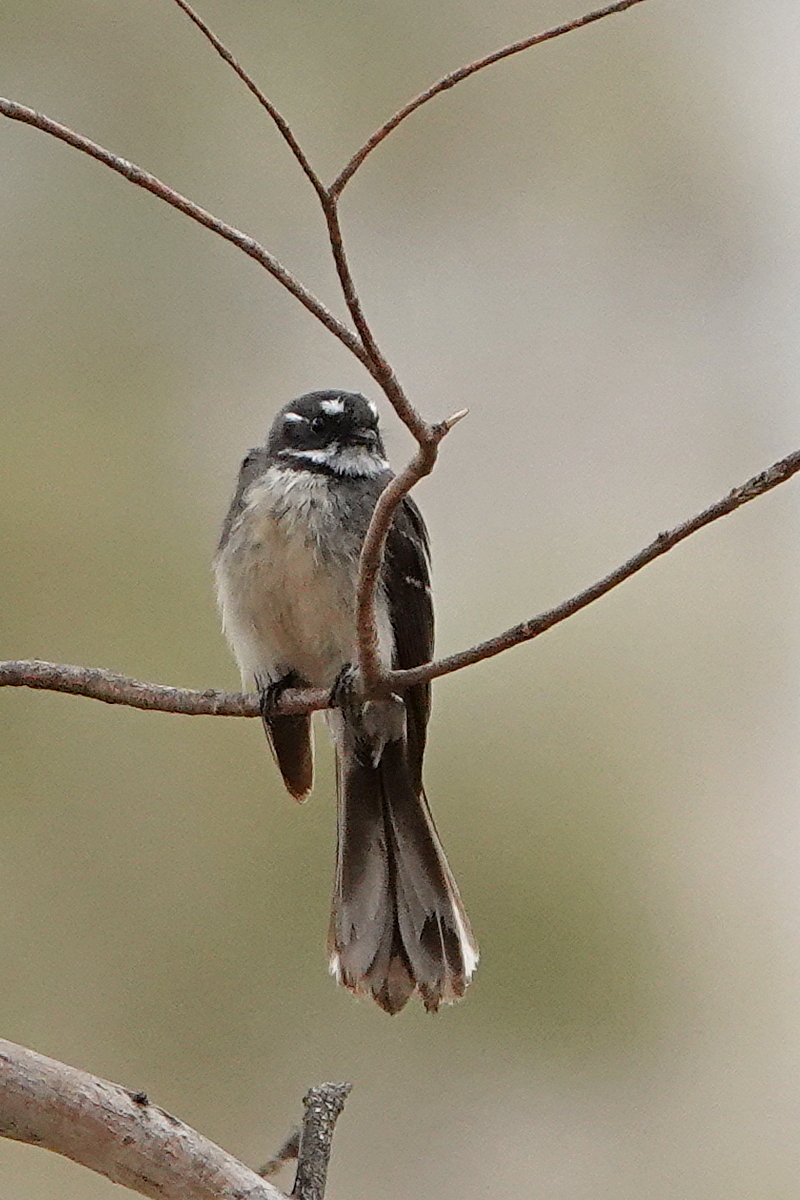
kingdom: Animalia
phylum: Chordata
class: Aves
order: Passeriformes
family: Rhipiduridae
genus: Rhipidura
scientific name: Rhipidura albiscapa
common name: Grey fantail
